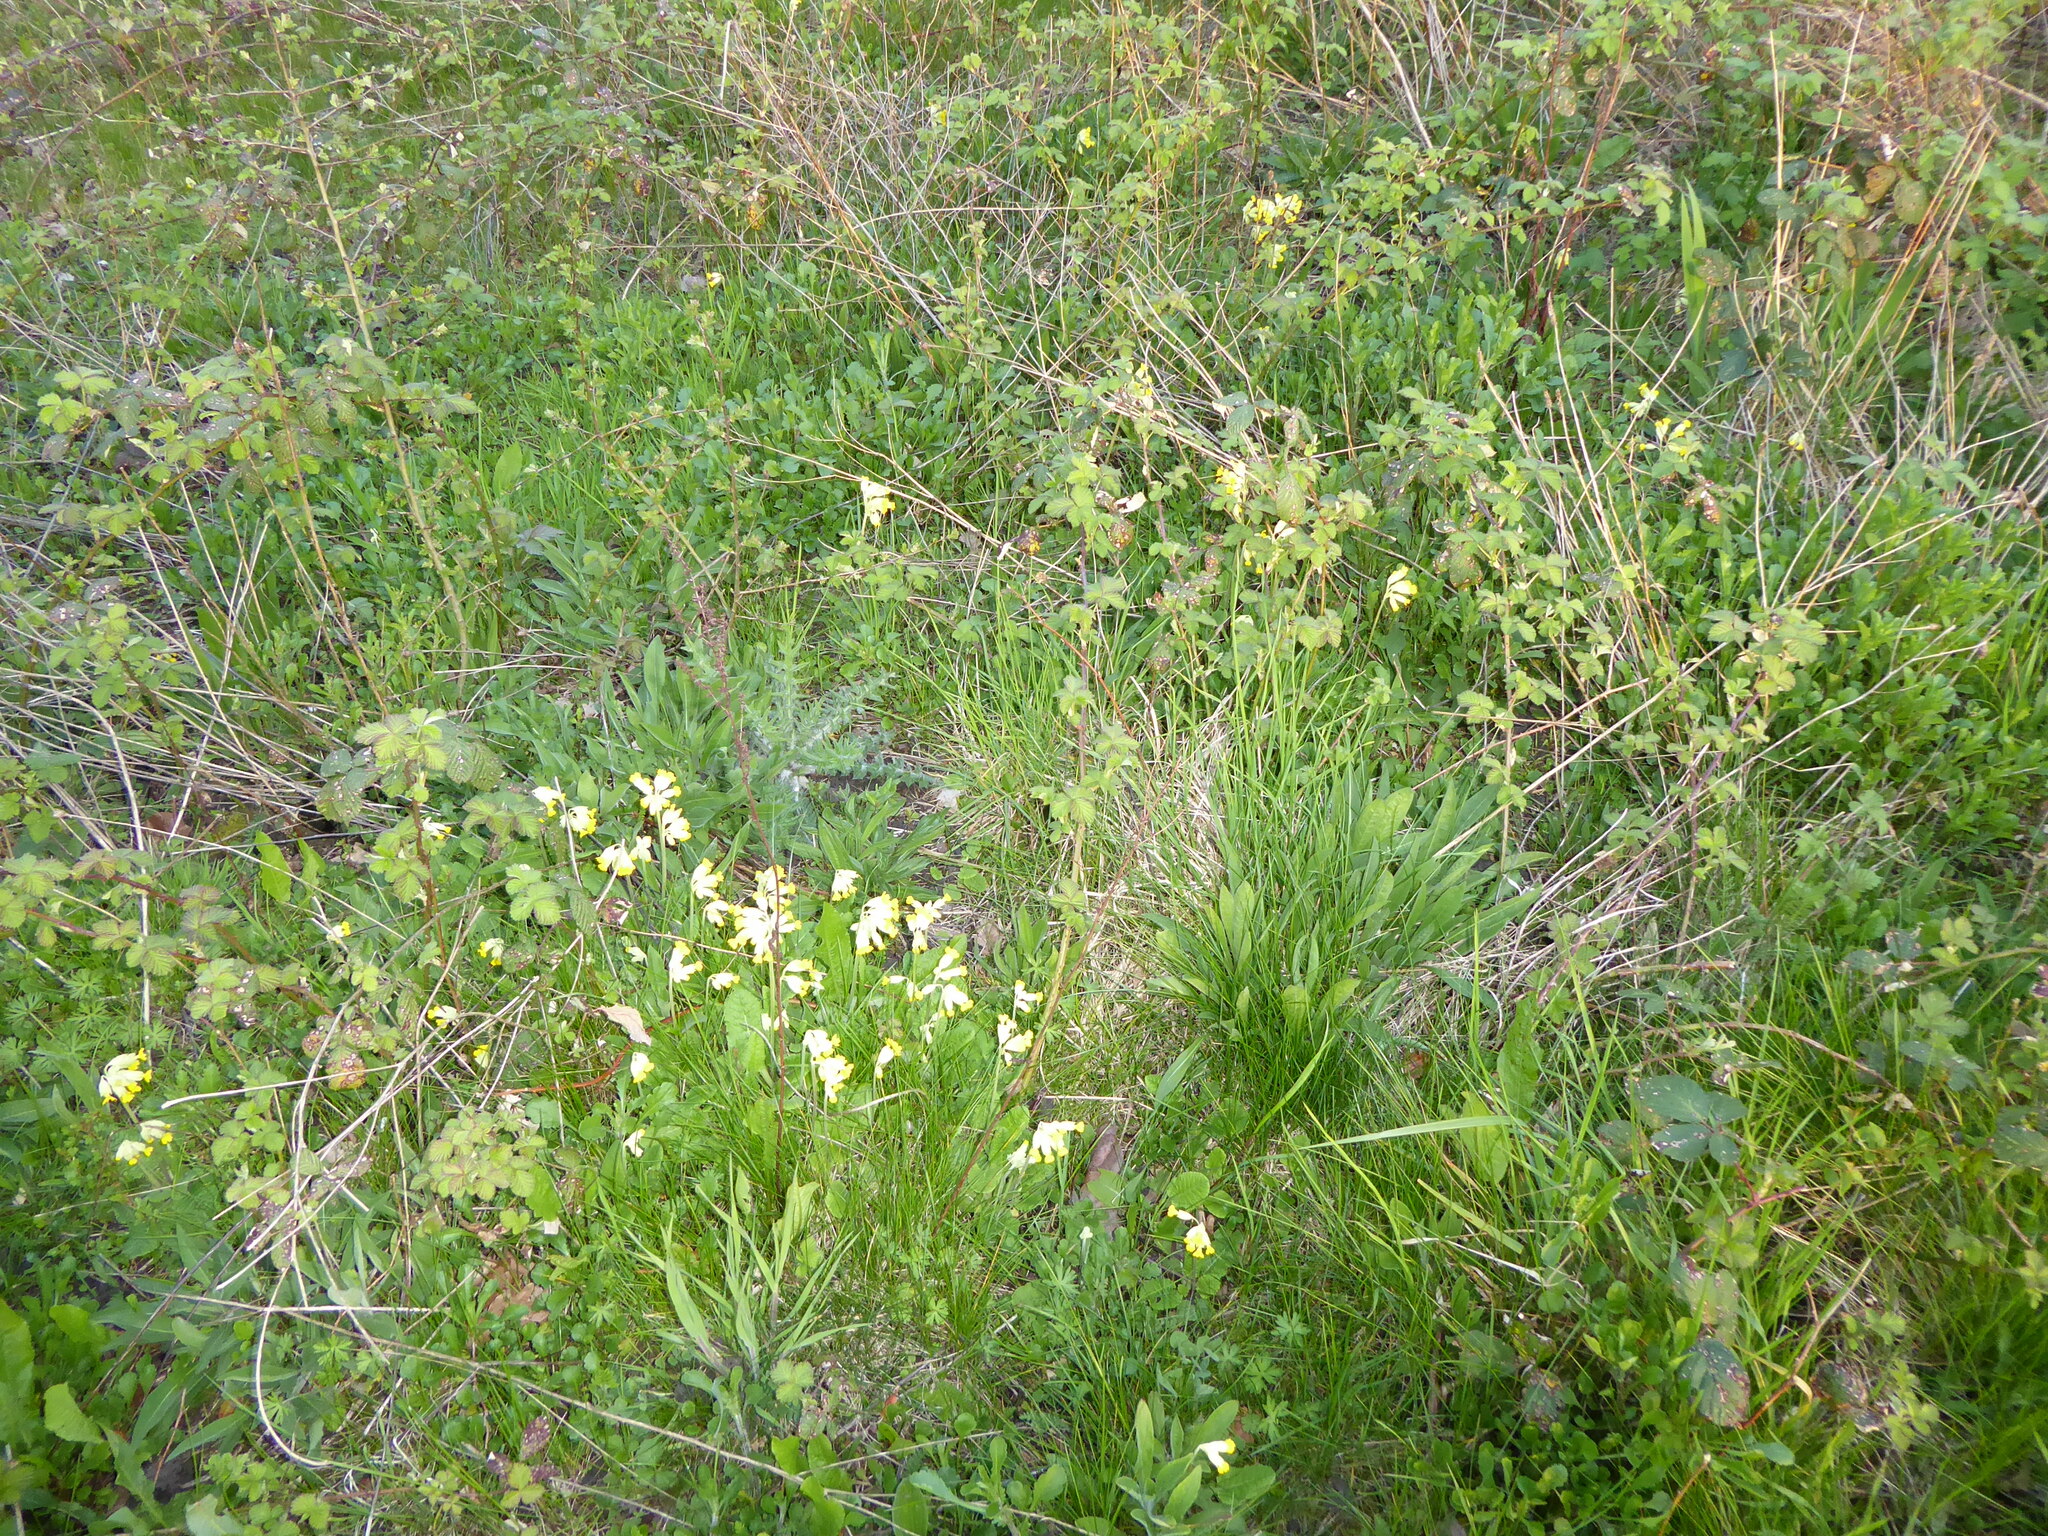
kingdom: Plantae
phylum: Tracheophyta
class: Magnoliopsida
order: Ericales
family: Primulaceae
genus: Primula
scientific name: Primula veris
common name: Cowslip
